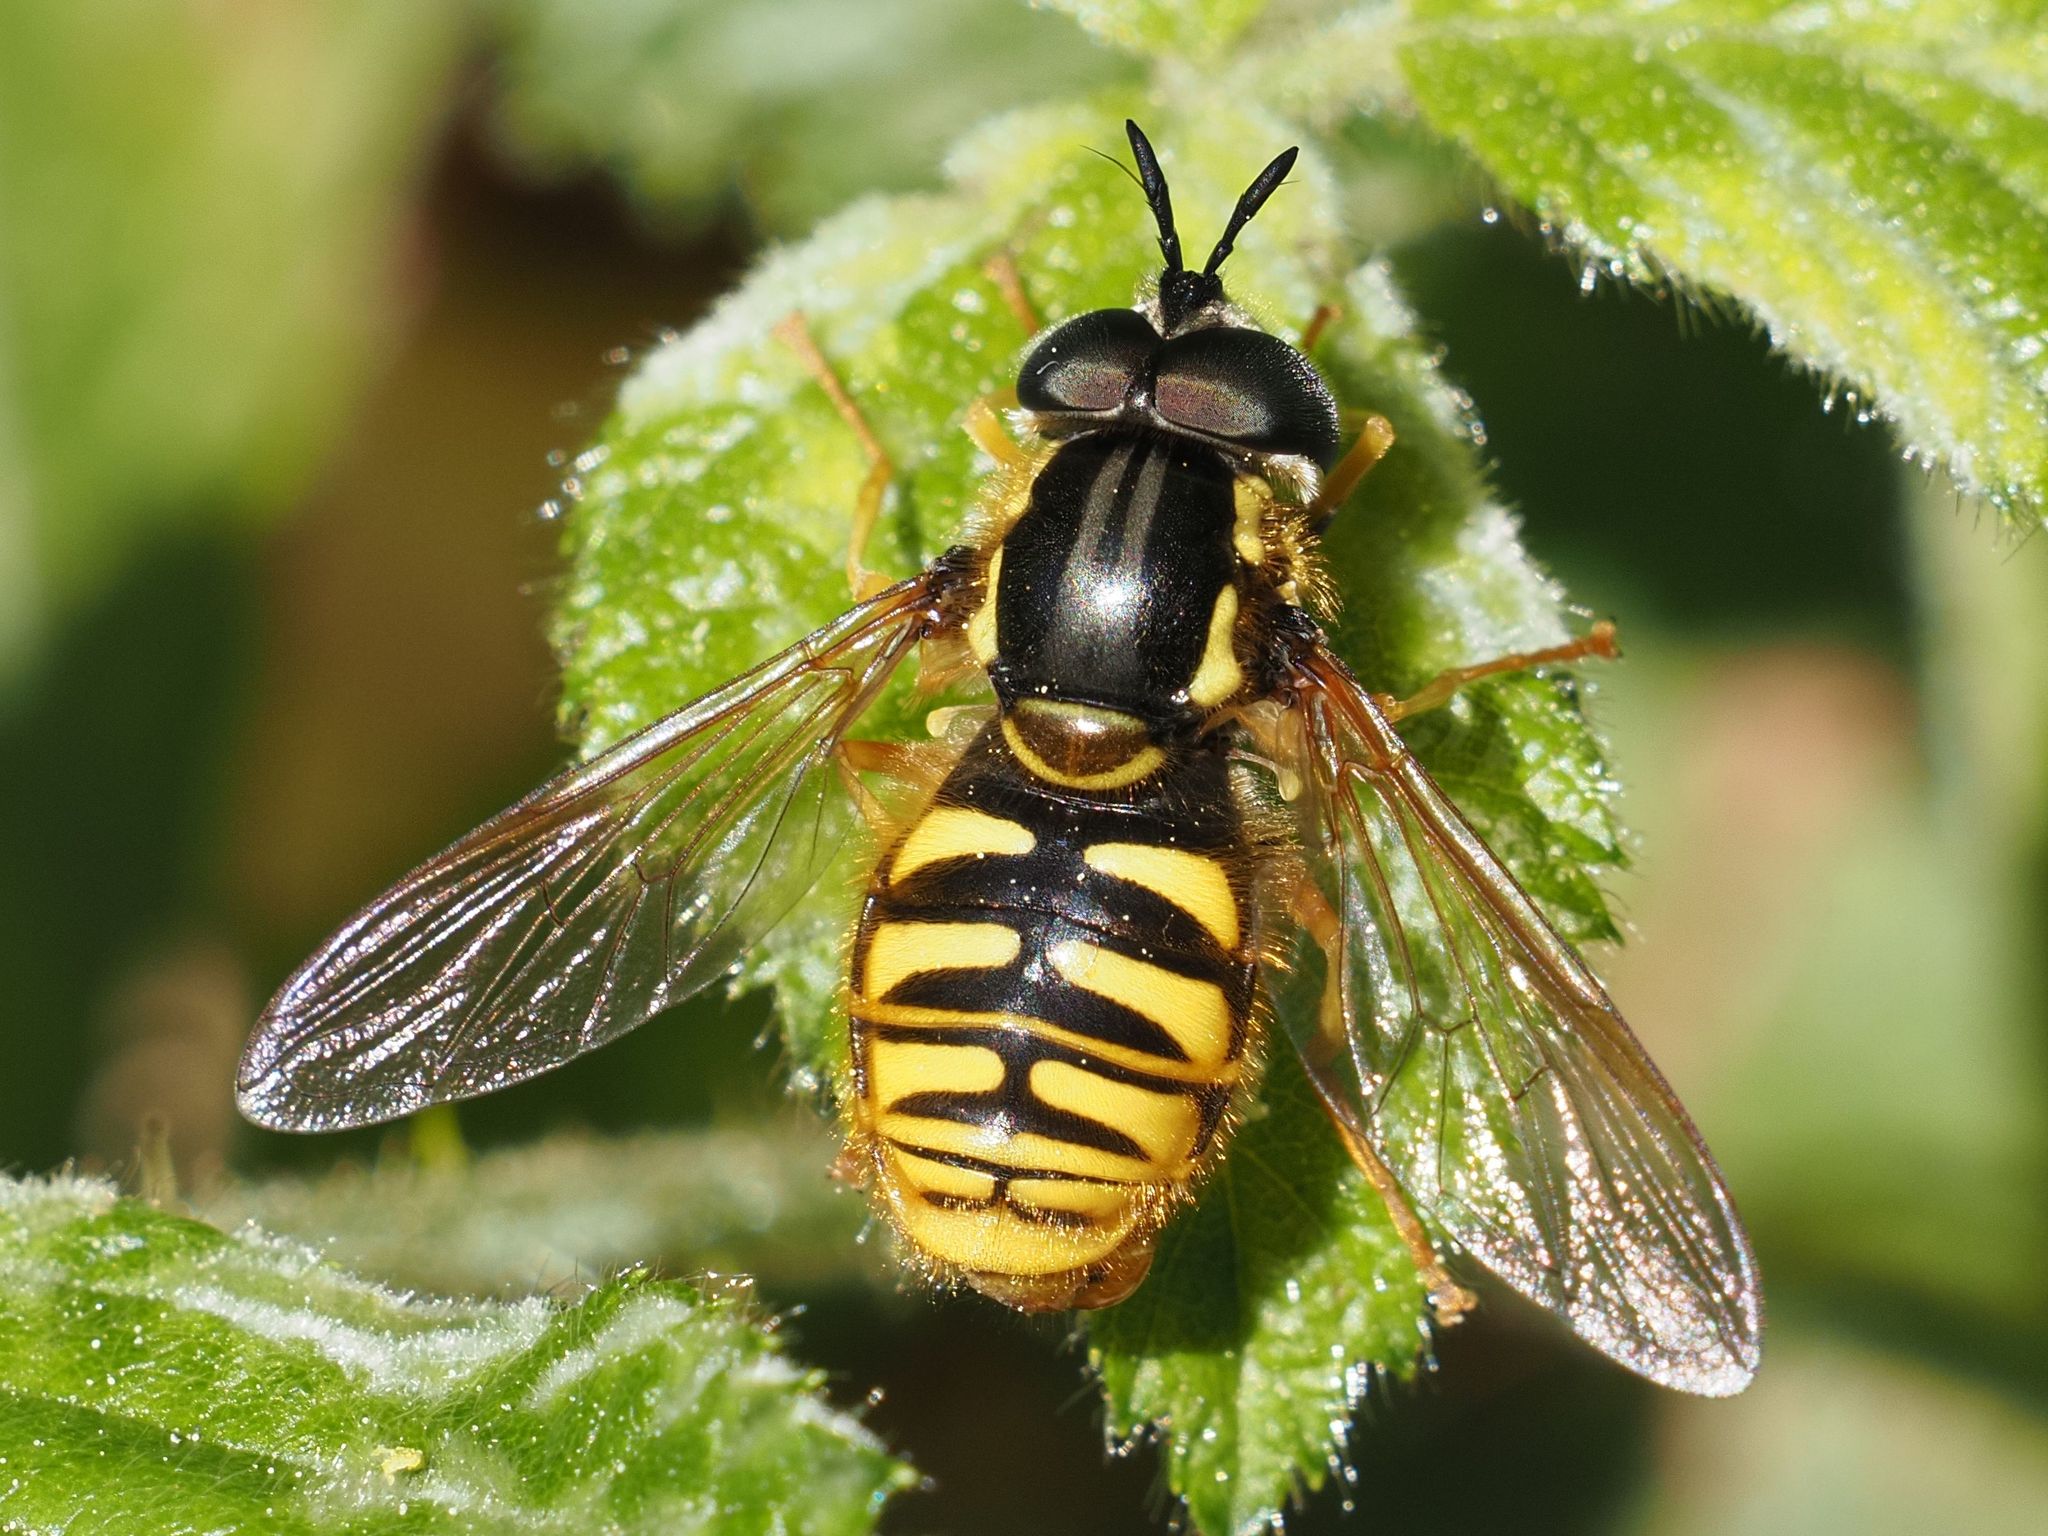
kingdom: Animalia
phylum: Arthropoda
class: Insecta
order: Diptera
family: Syrphidae
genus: Chrysotoxum
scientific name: Chrysotoxum cautum
